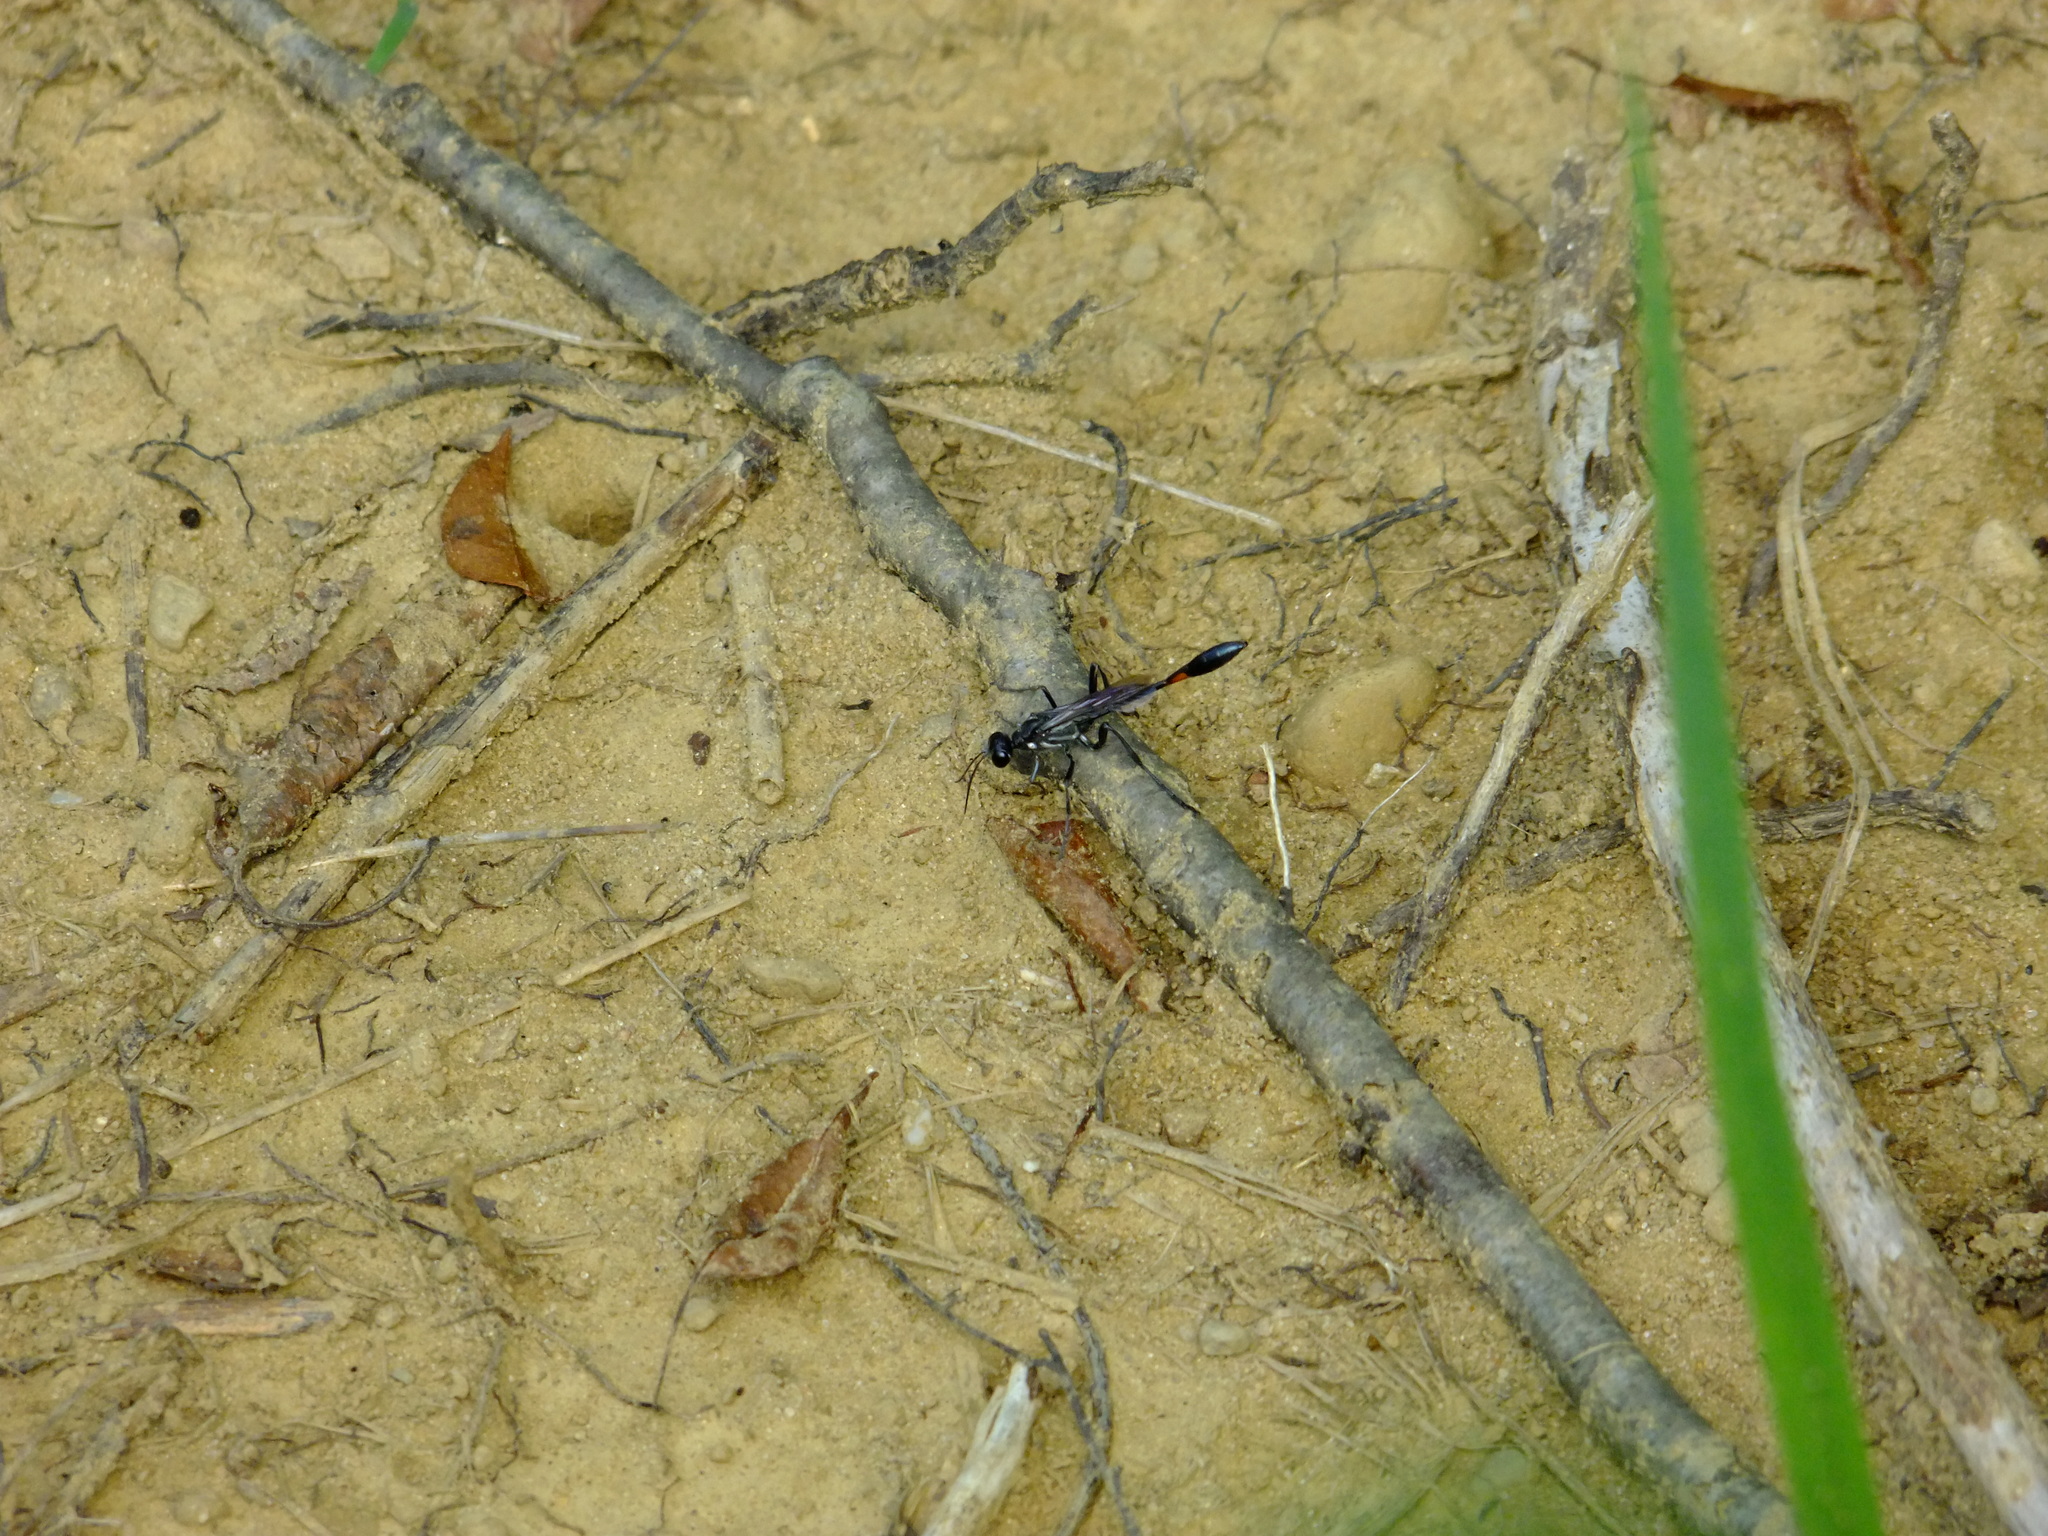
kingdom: Animalia
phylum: Arthropoda
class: Insecta
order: Hymenoptera
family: Sphecidae
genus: Ammophila
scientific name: Ammophila procera
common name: Common thread-waisted wasp
